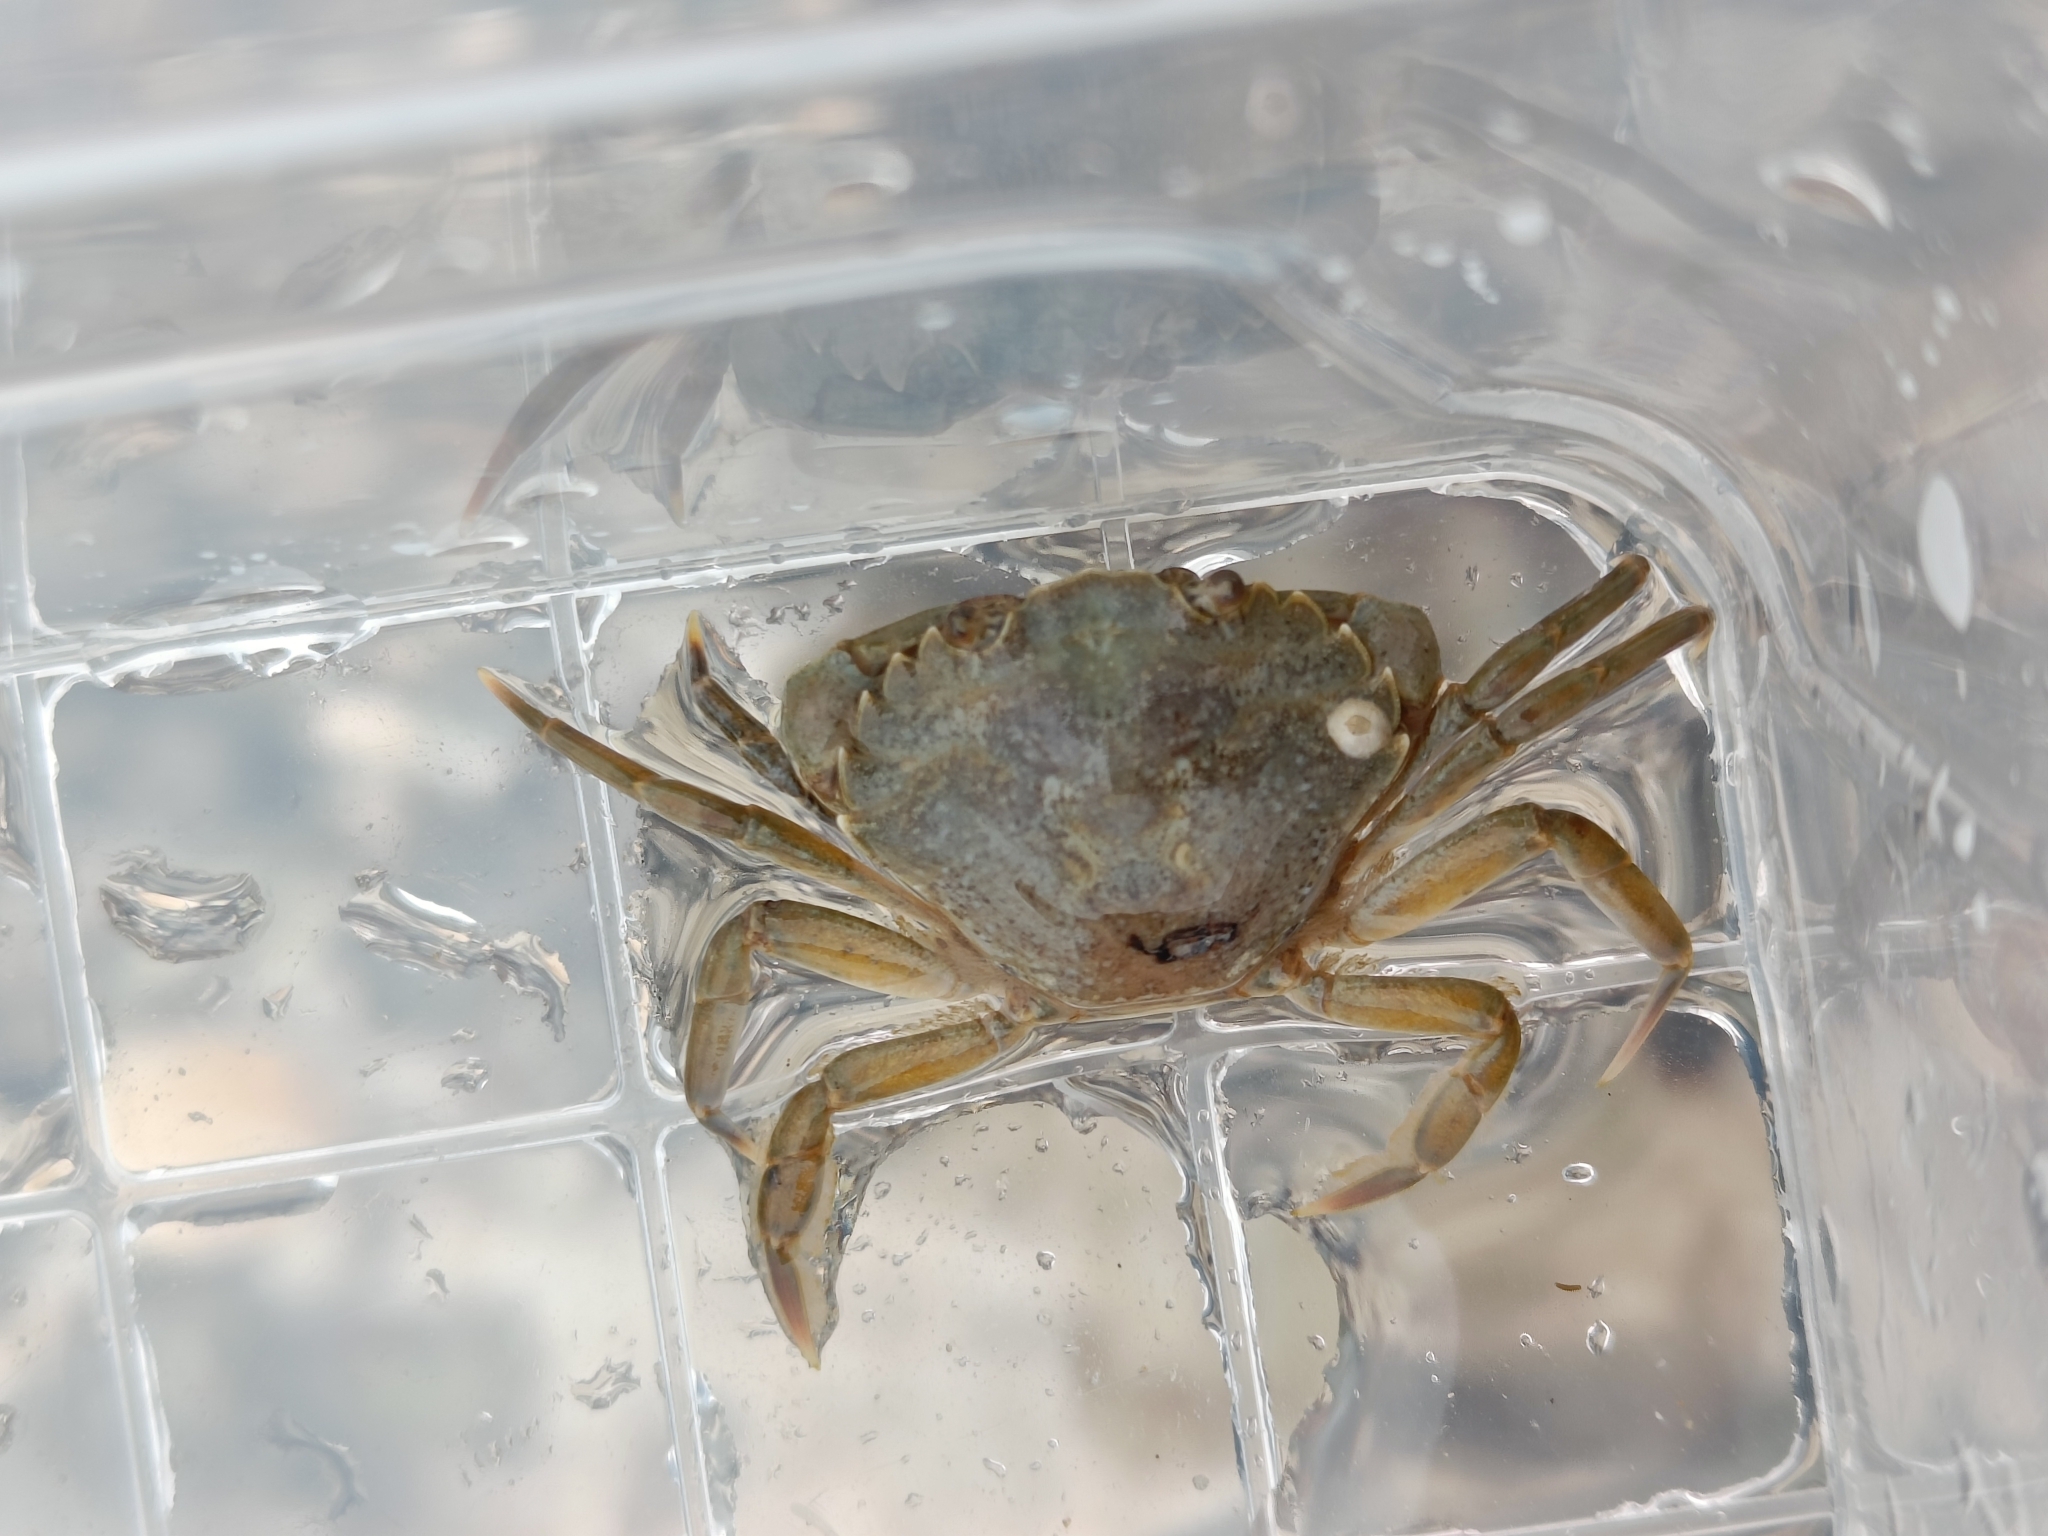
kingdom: Animalia
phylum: Arthropoda
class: Malacostraca
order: Decapoda
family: Carcinidae
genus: Carcinus
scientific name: Carcinus maenas
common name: European green crab
